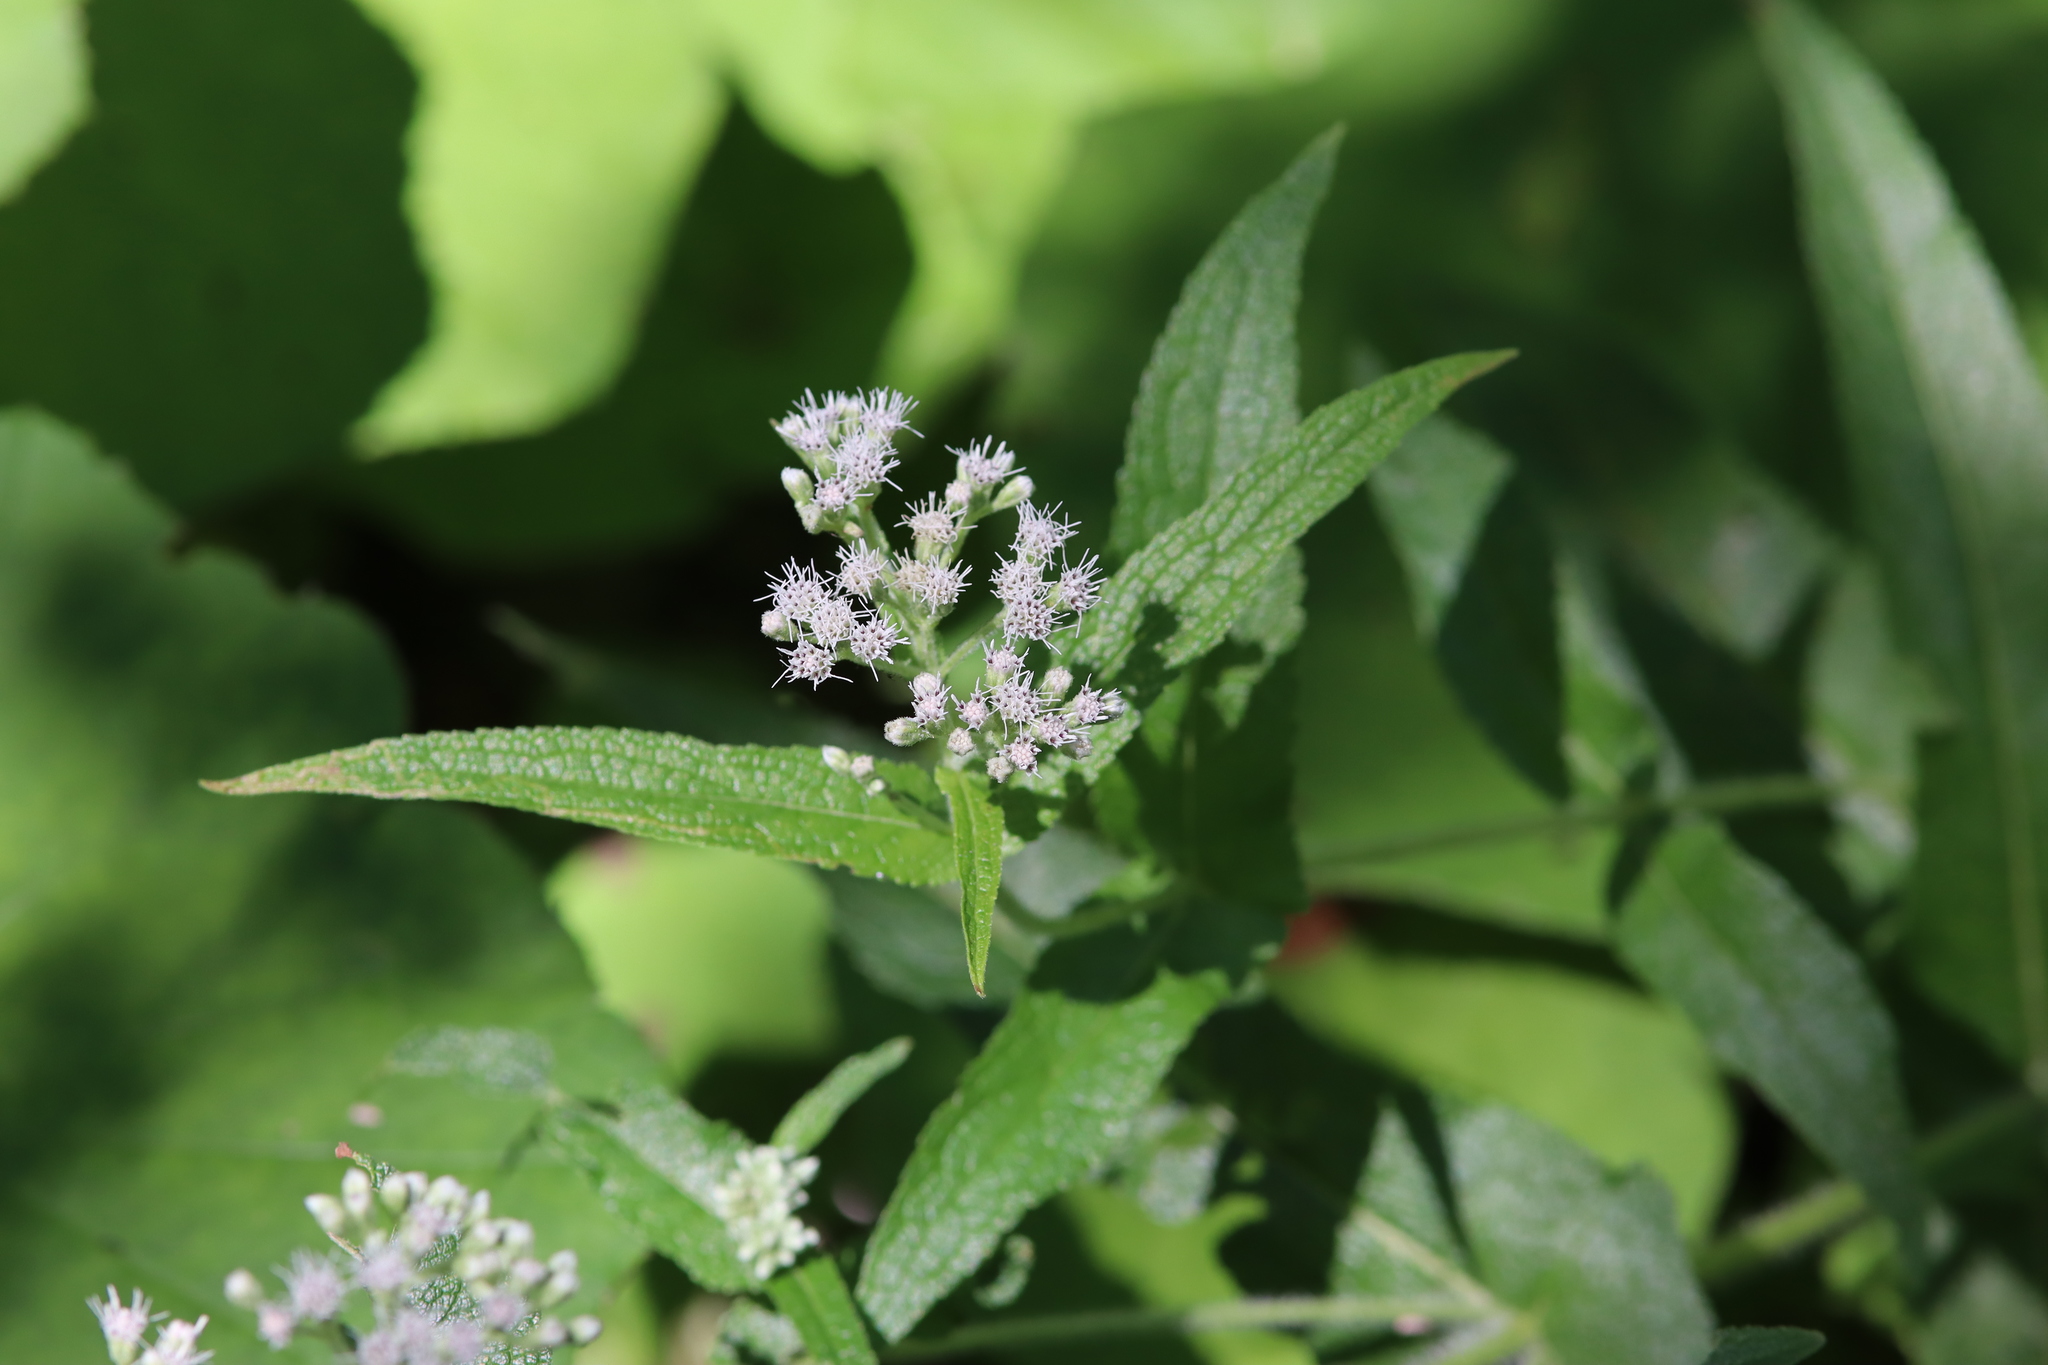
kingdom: Plantae
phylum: Tracheophyta
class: Magnoliopsida
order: Asterales
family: Asteraceae
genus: Eupatorium
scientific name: Eupatorium perfoliatum
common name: Boneset
